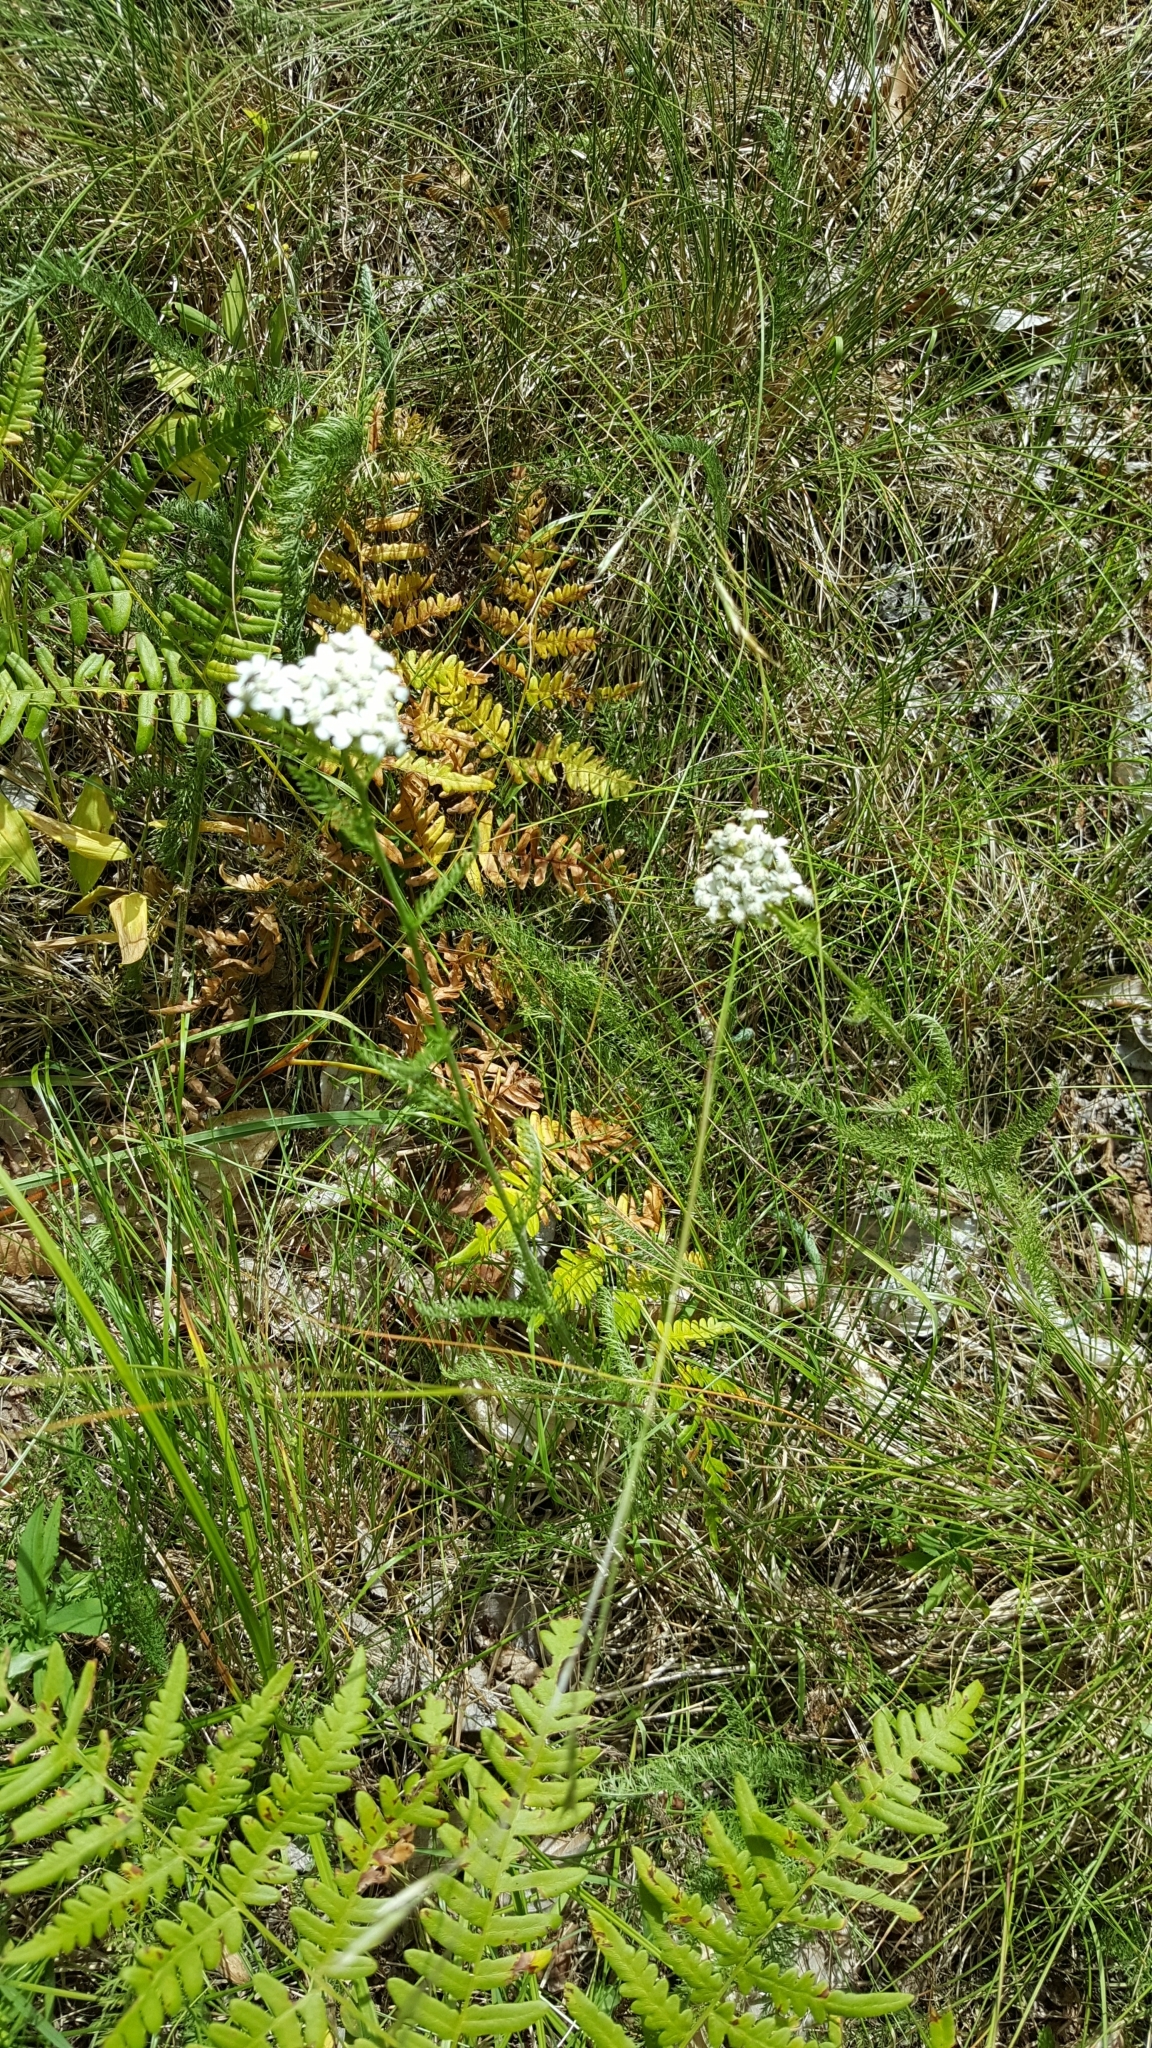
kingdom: Plantae
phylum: Tracheophyta
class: Magnoliopsida
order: Asterales
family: Asteraceae
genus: Achillea
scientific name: Achillea millefolium
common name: Yarrow
